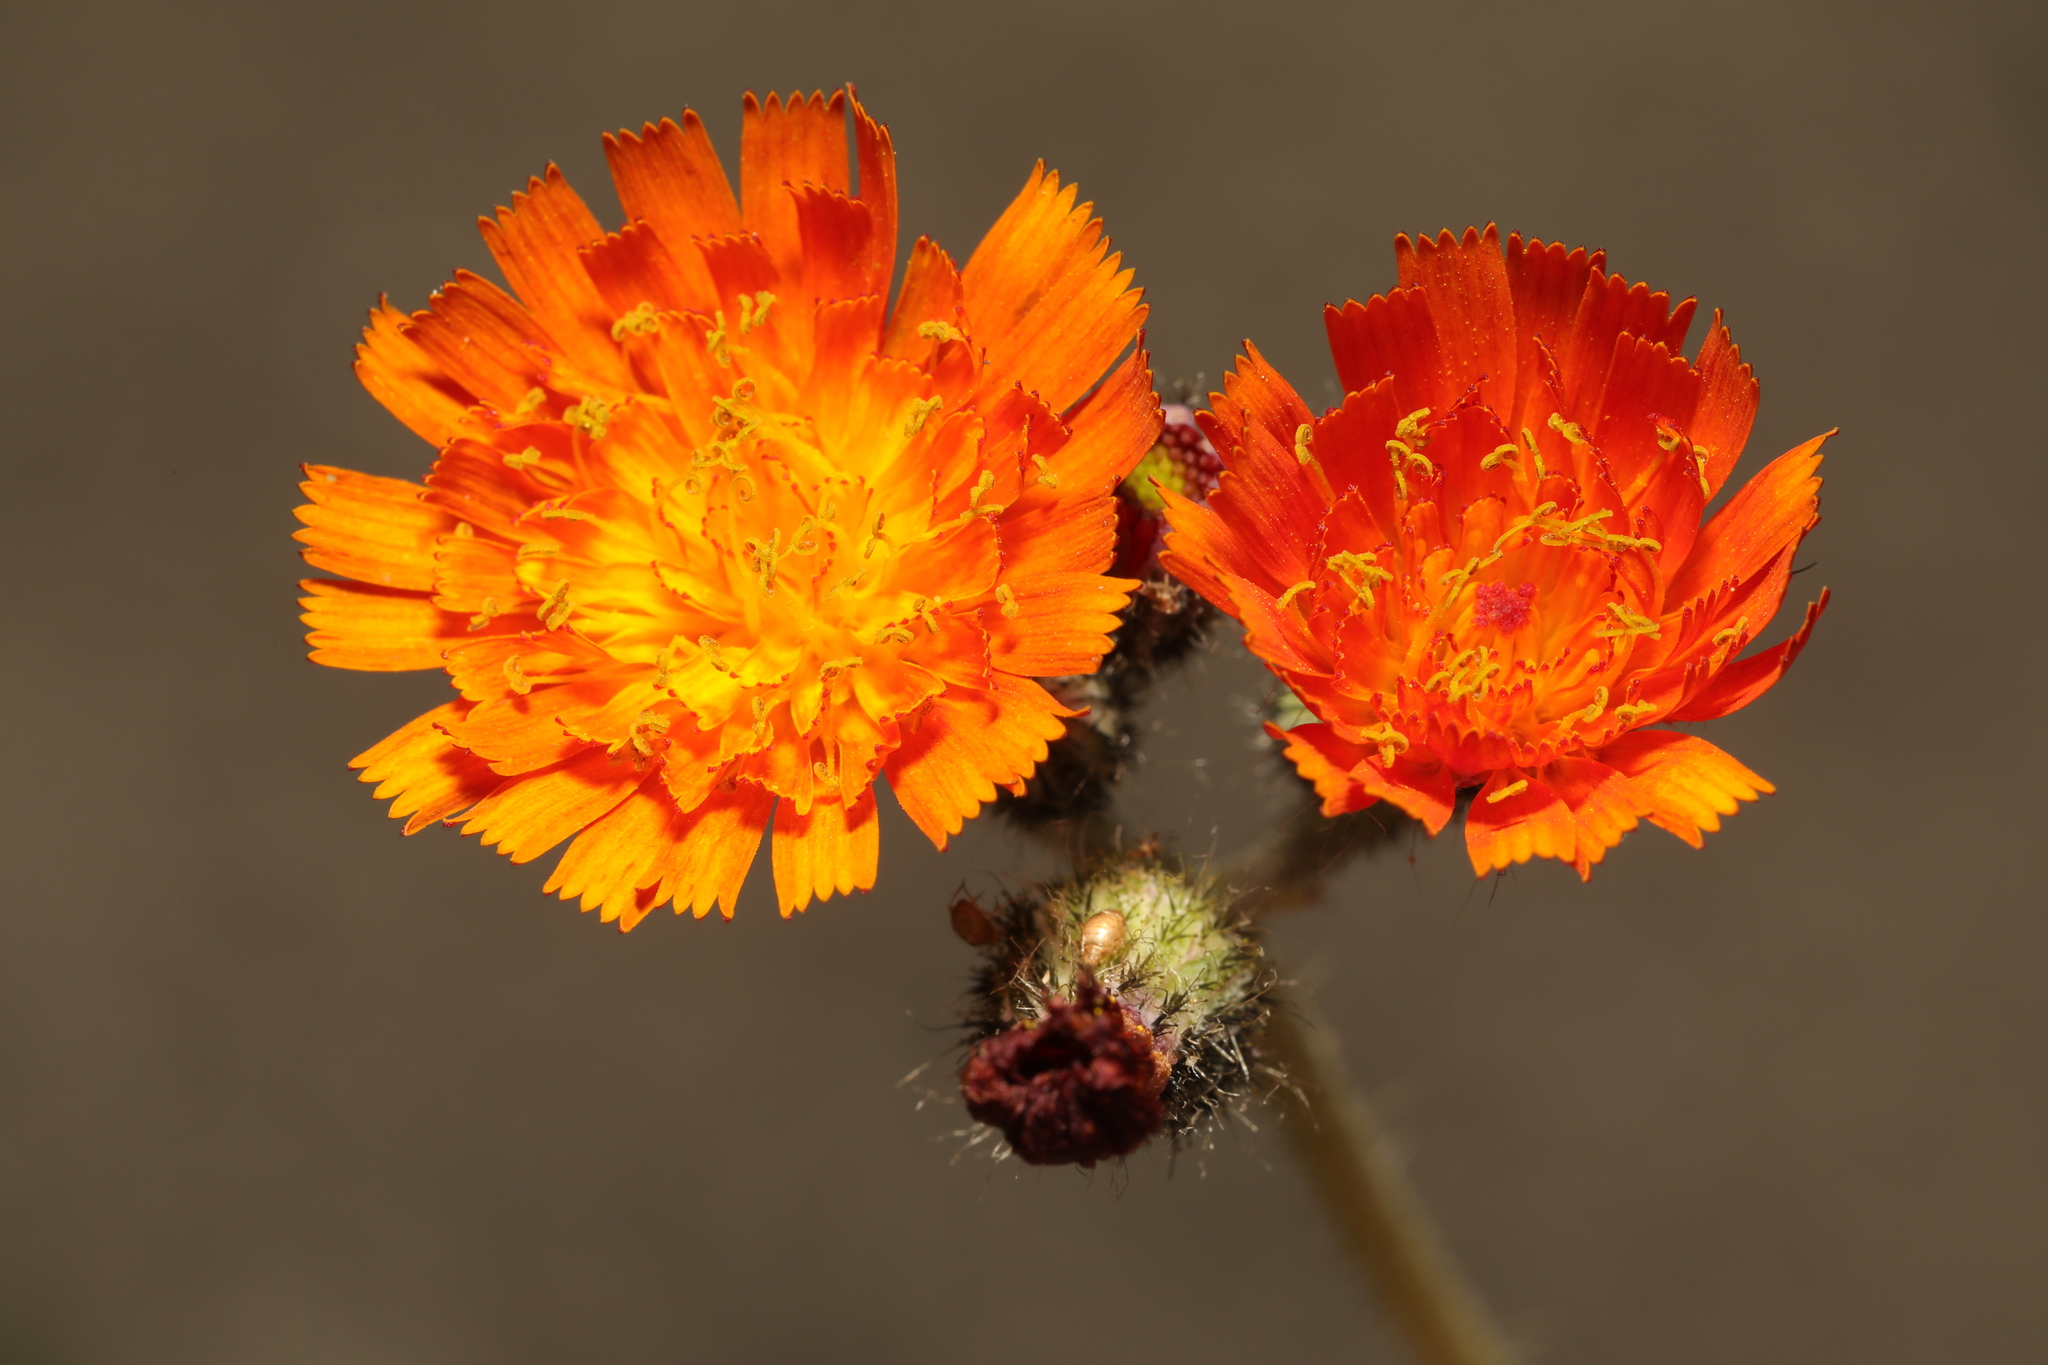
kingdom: Plantae
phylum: Tracheophyta
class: Magnoliopsida
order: Asterales
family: Asteraceae
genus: Pilosella
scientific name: Pilosella aurantiaca
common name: Fox-and-cubs
